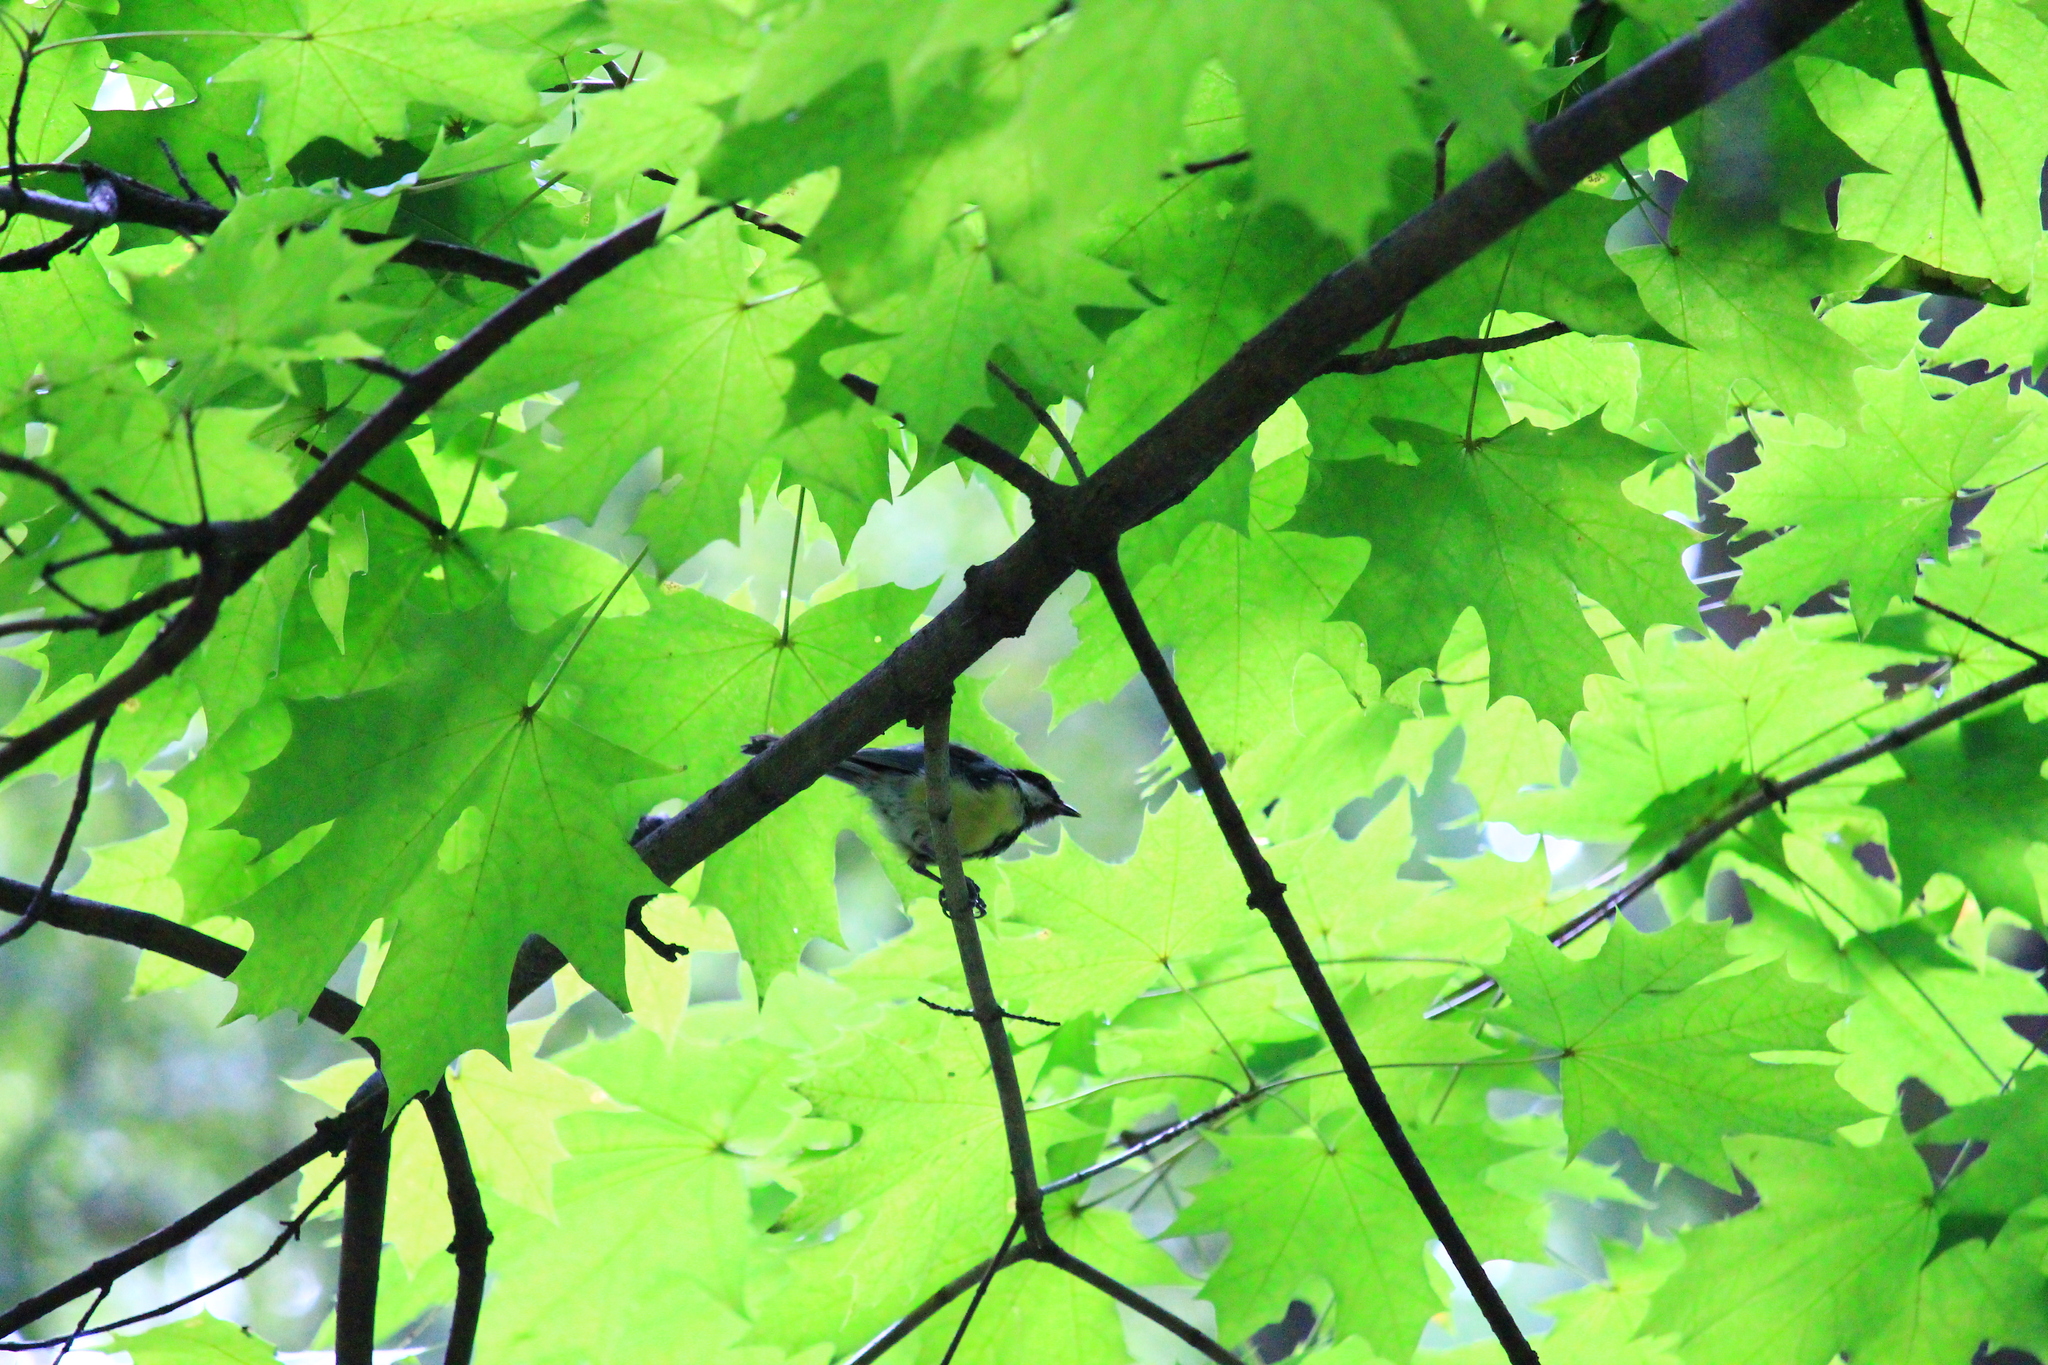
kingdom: Animalia
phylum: Chordata
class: Aves
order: Passeriformes
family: Paridae
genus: Parus
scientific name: Parus major
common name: Great tit
